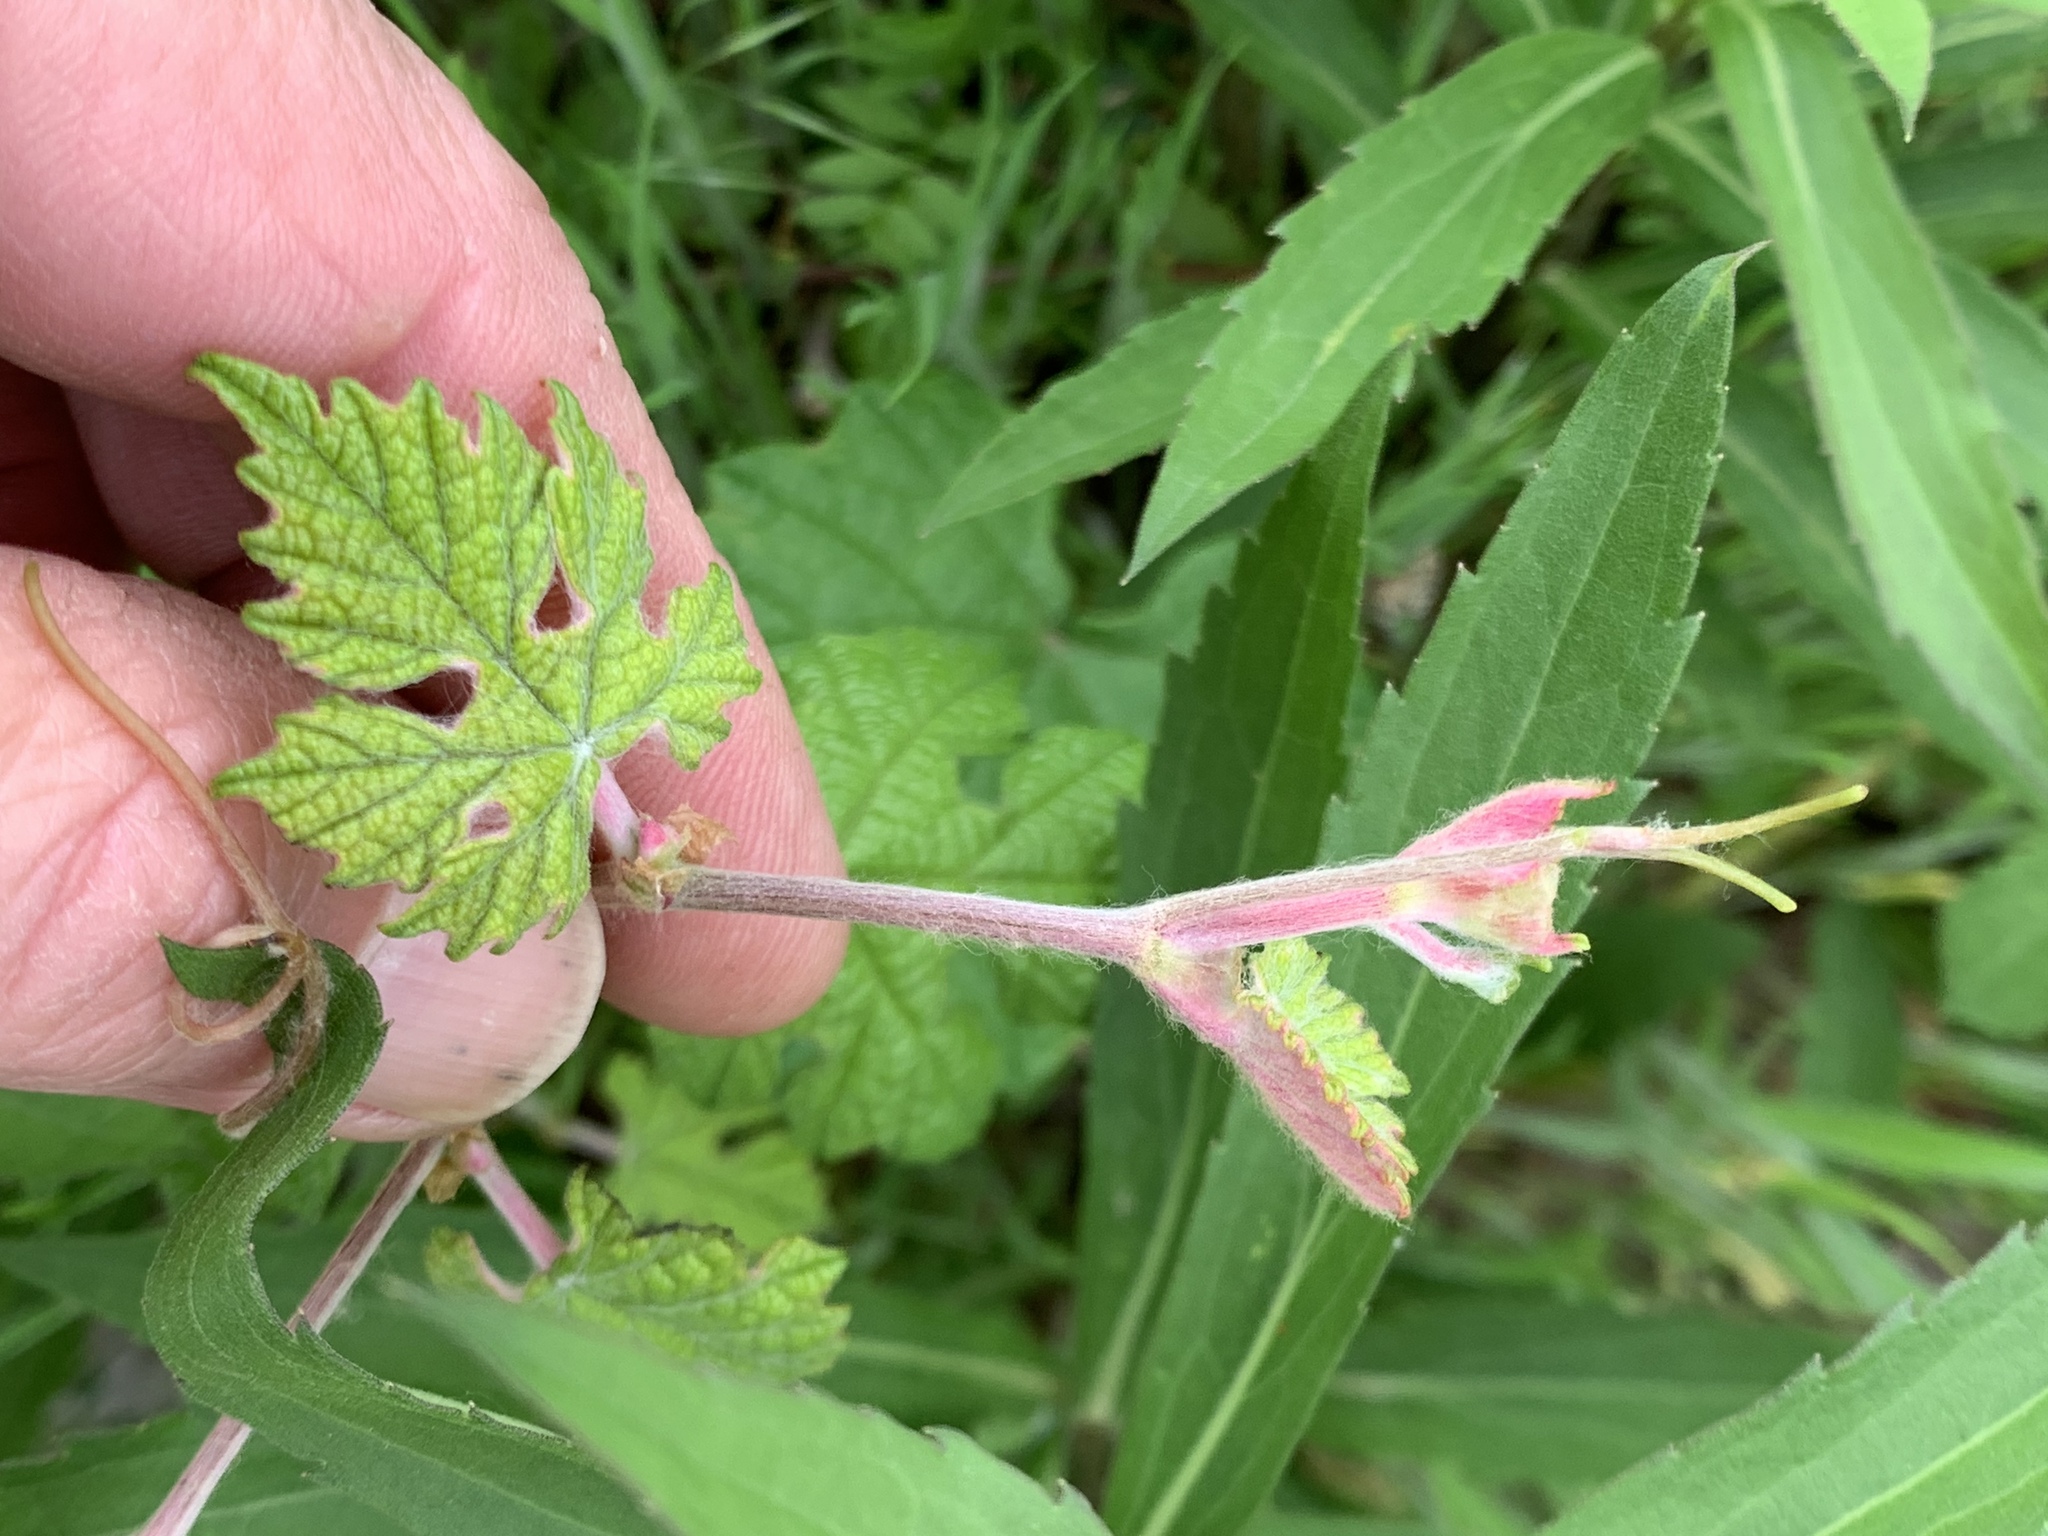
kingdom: Plantae
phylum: Tracheophyta
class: Magnoliopsida
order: Vitales
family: Vitaceae
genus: Vitis
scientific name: Vitis mustangensis
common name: Mustang grape
